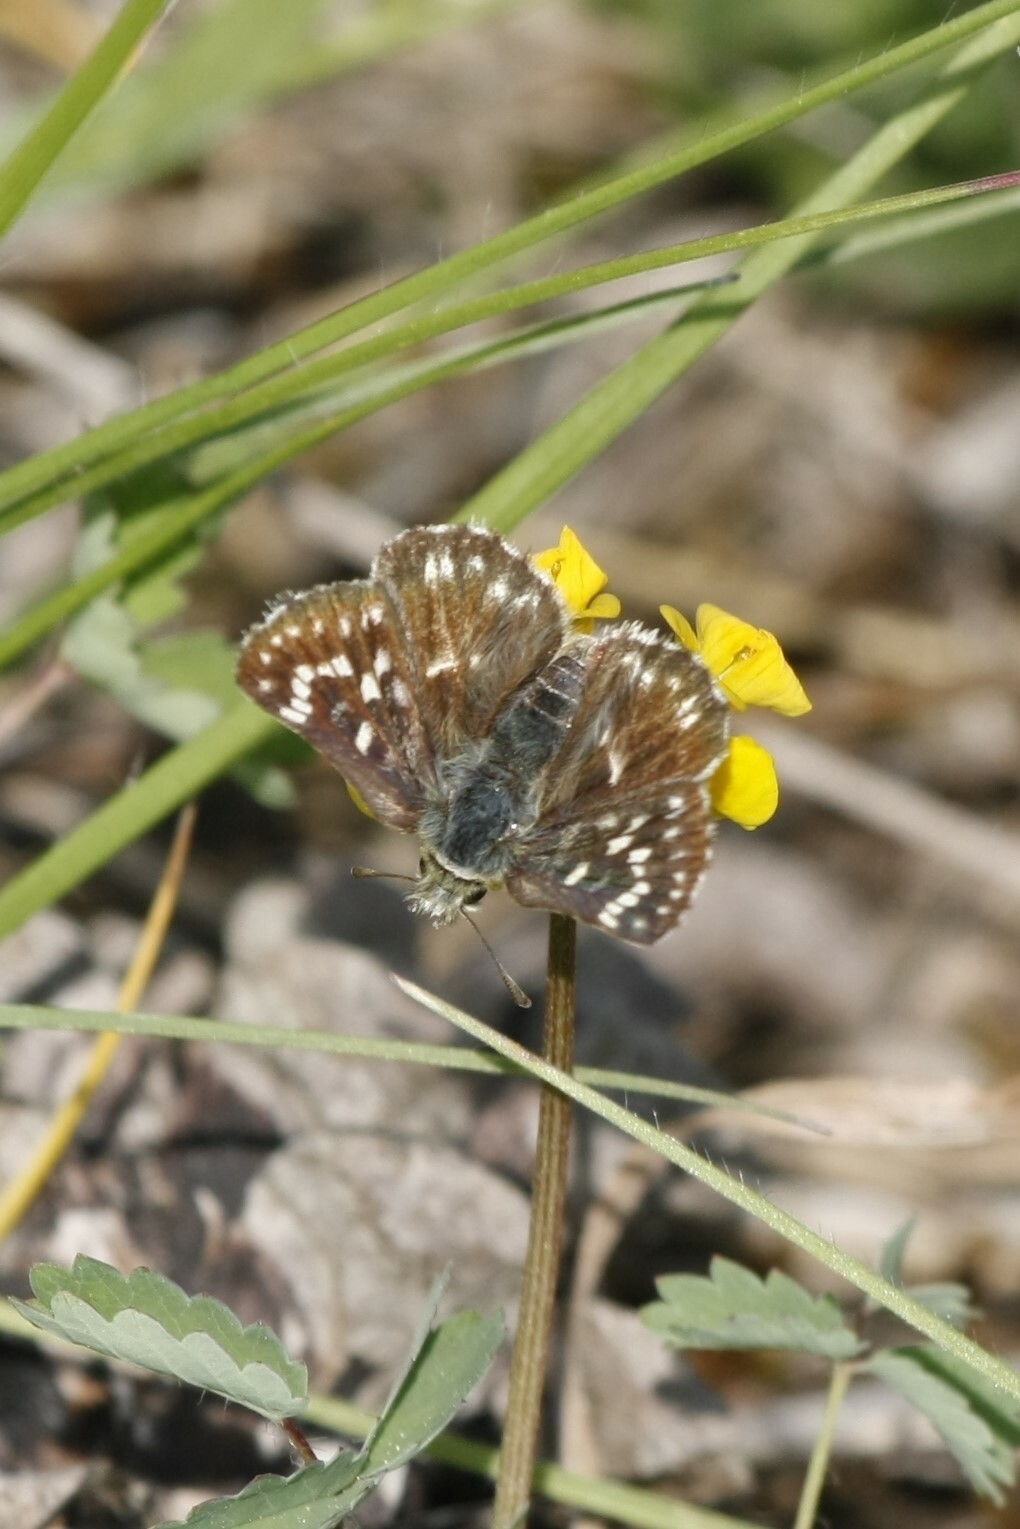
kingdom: Animalia
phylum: Arthropoda
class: Insecta
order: Lepidoptera
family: Hesperiidae
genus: Spialia
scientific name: Spialia sertorius
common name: Red underwing skipper
